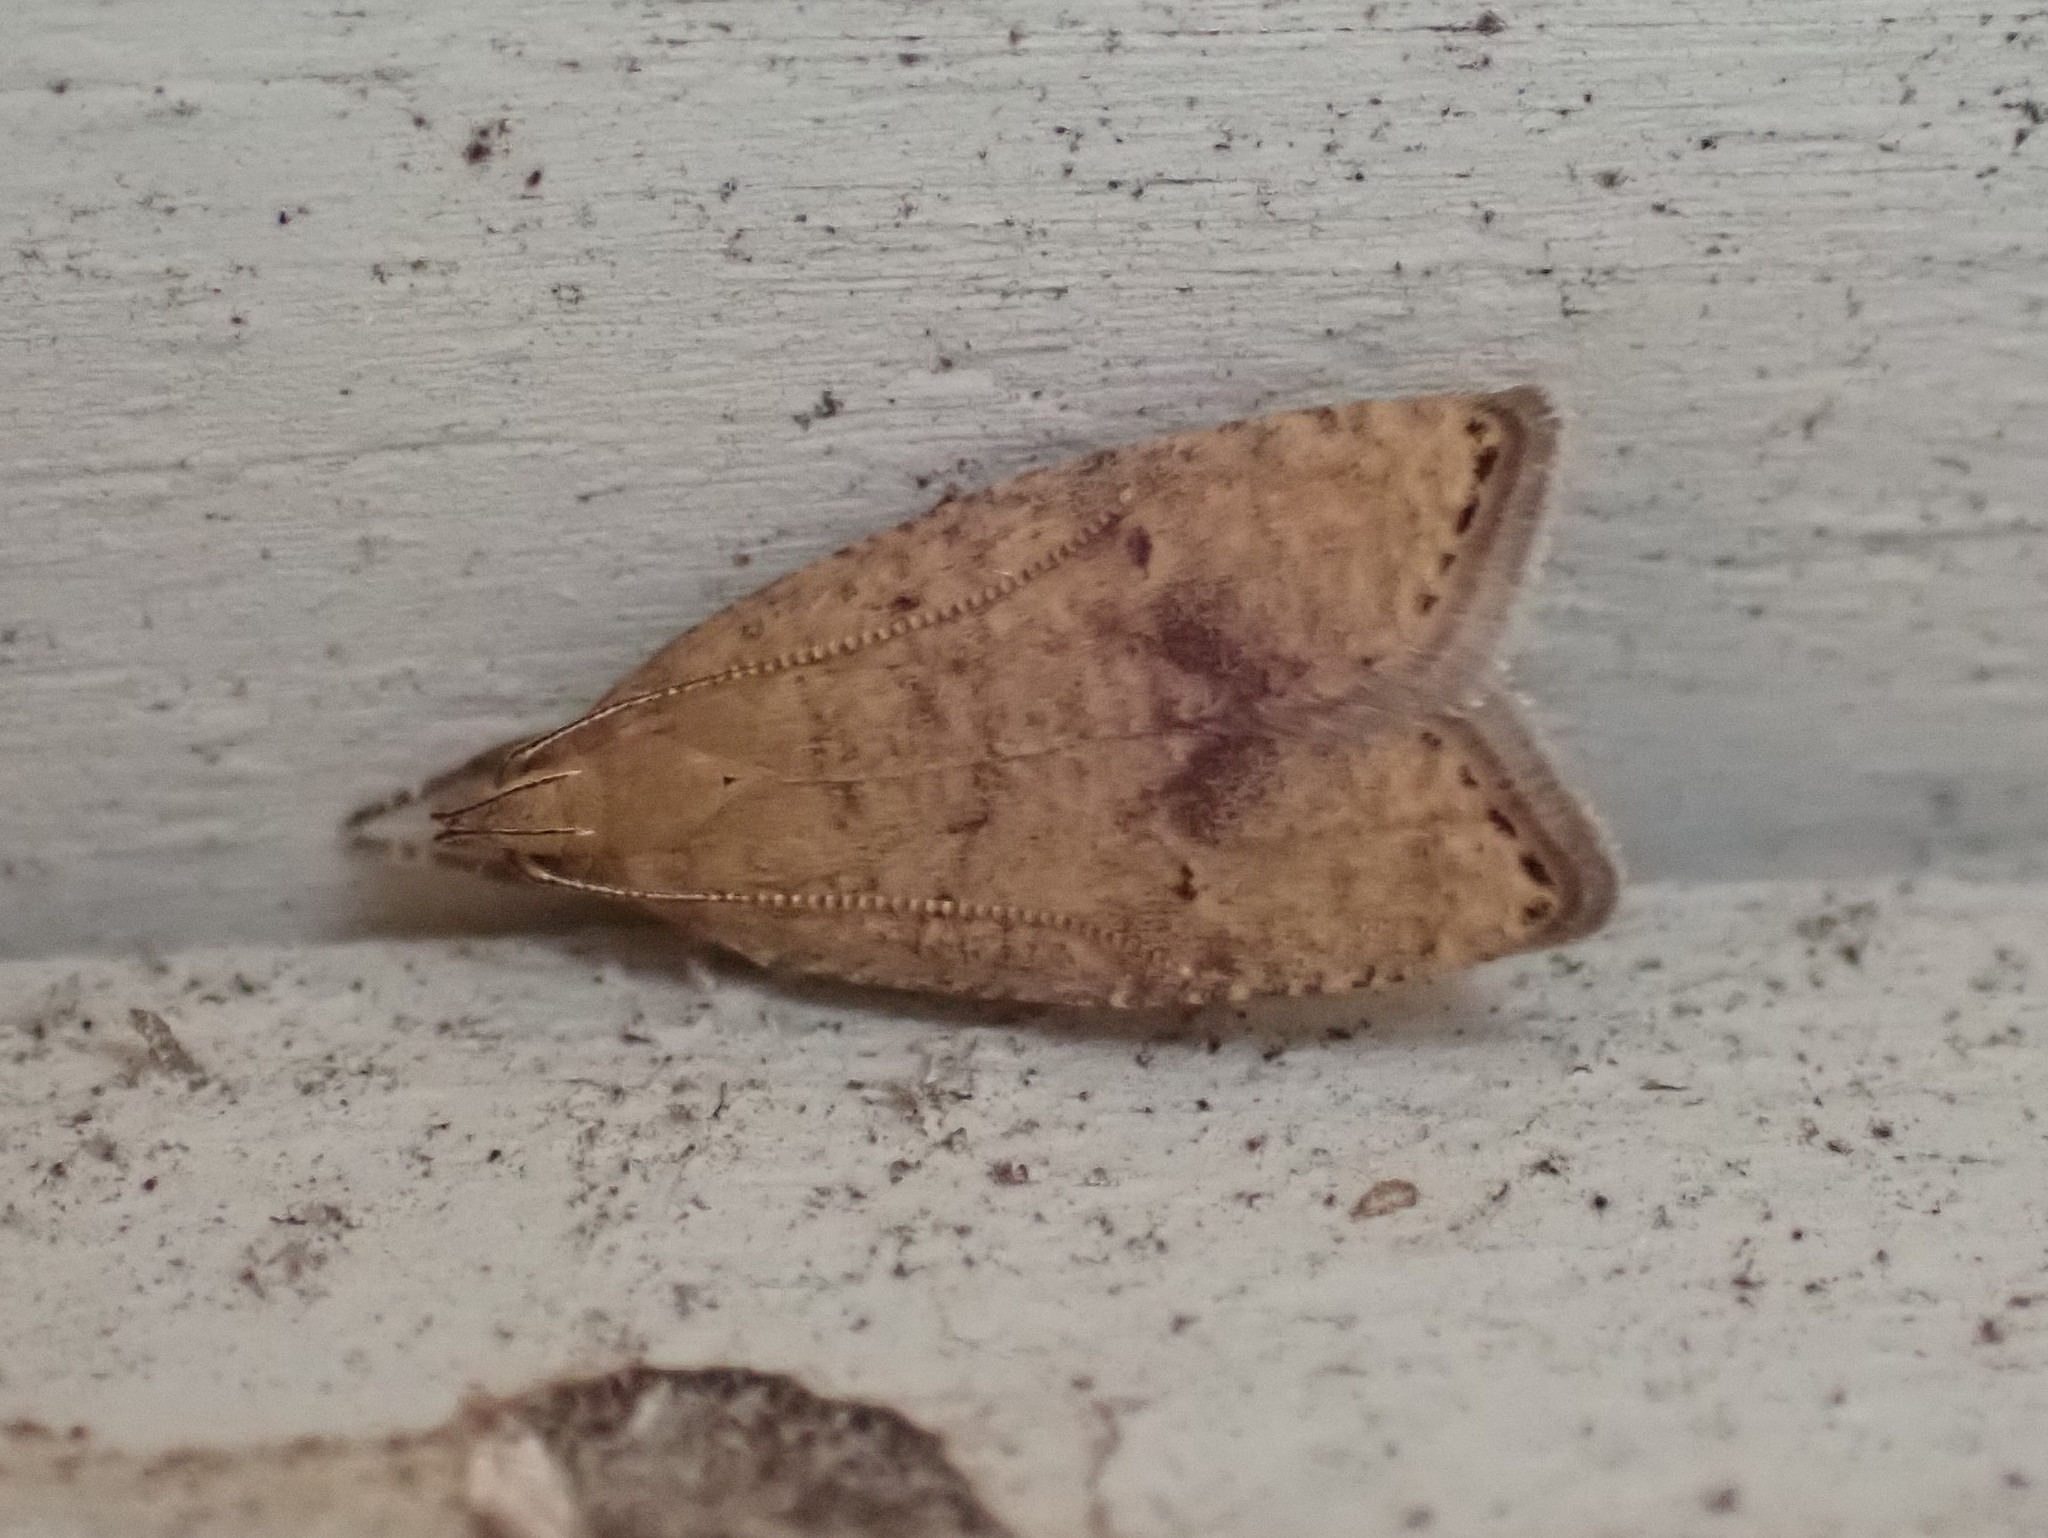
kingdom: Animalia
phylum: Arthropoda
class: Insecta
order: Lepidoptera
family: Depressariidae
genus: Psilocorsis
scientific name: Psilocorsis quercicella
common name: Oak leaftier moth
